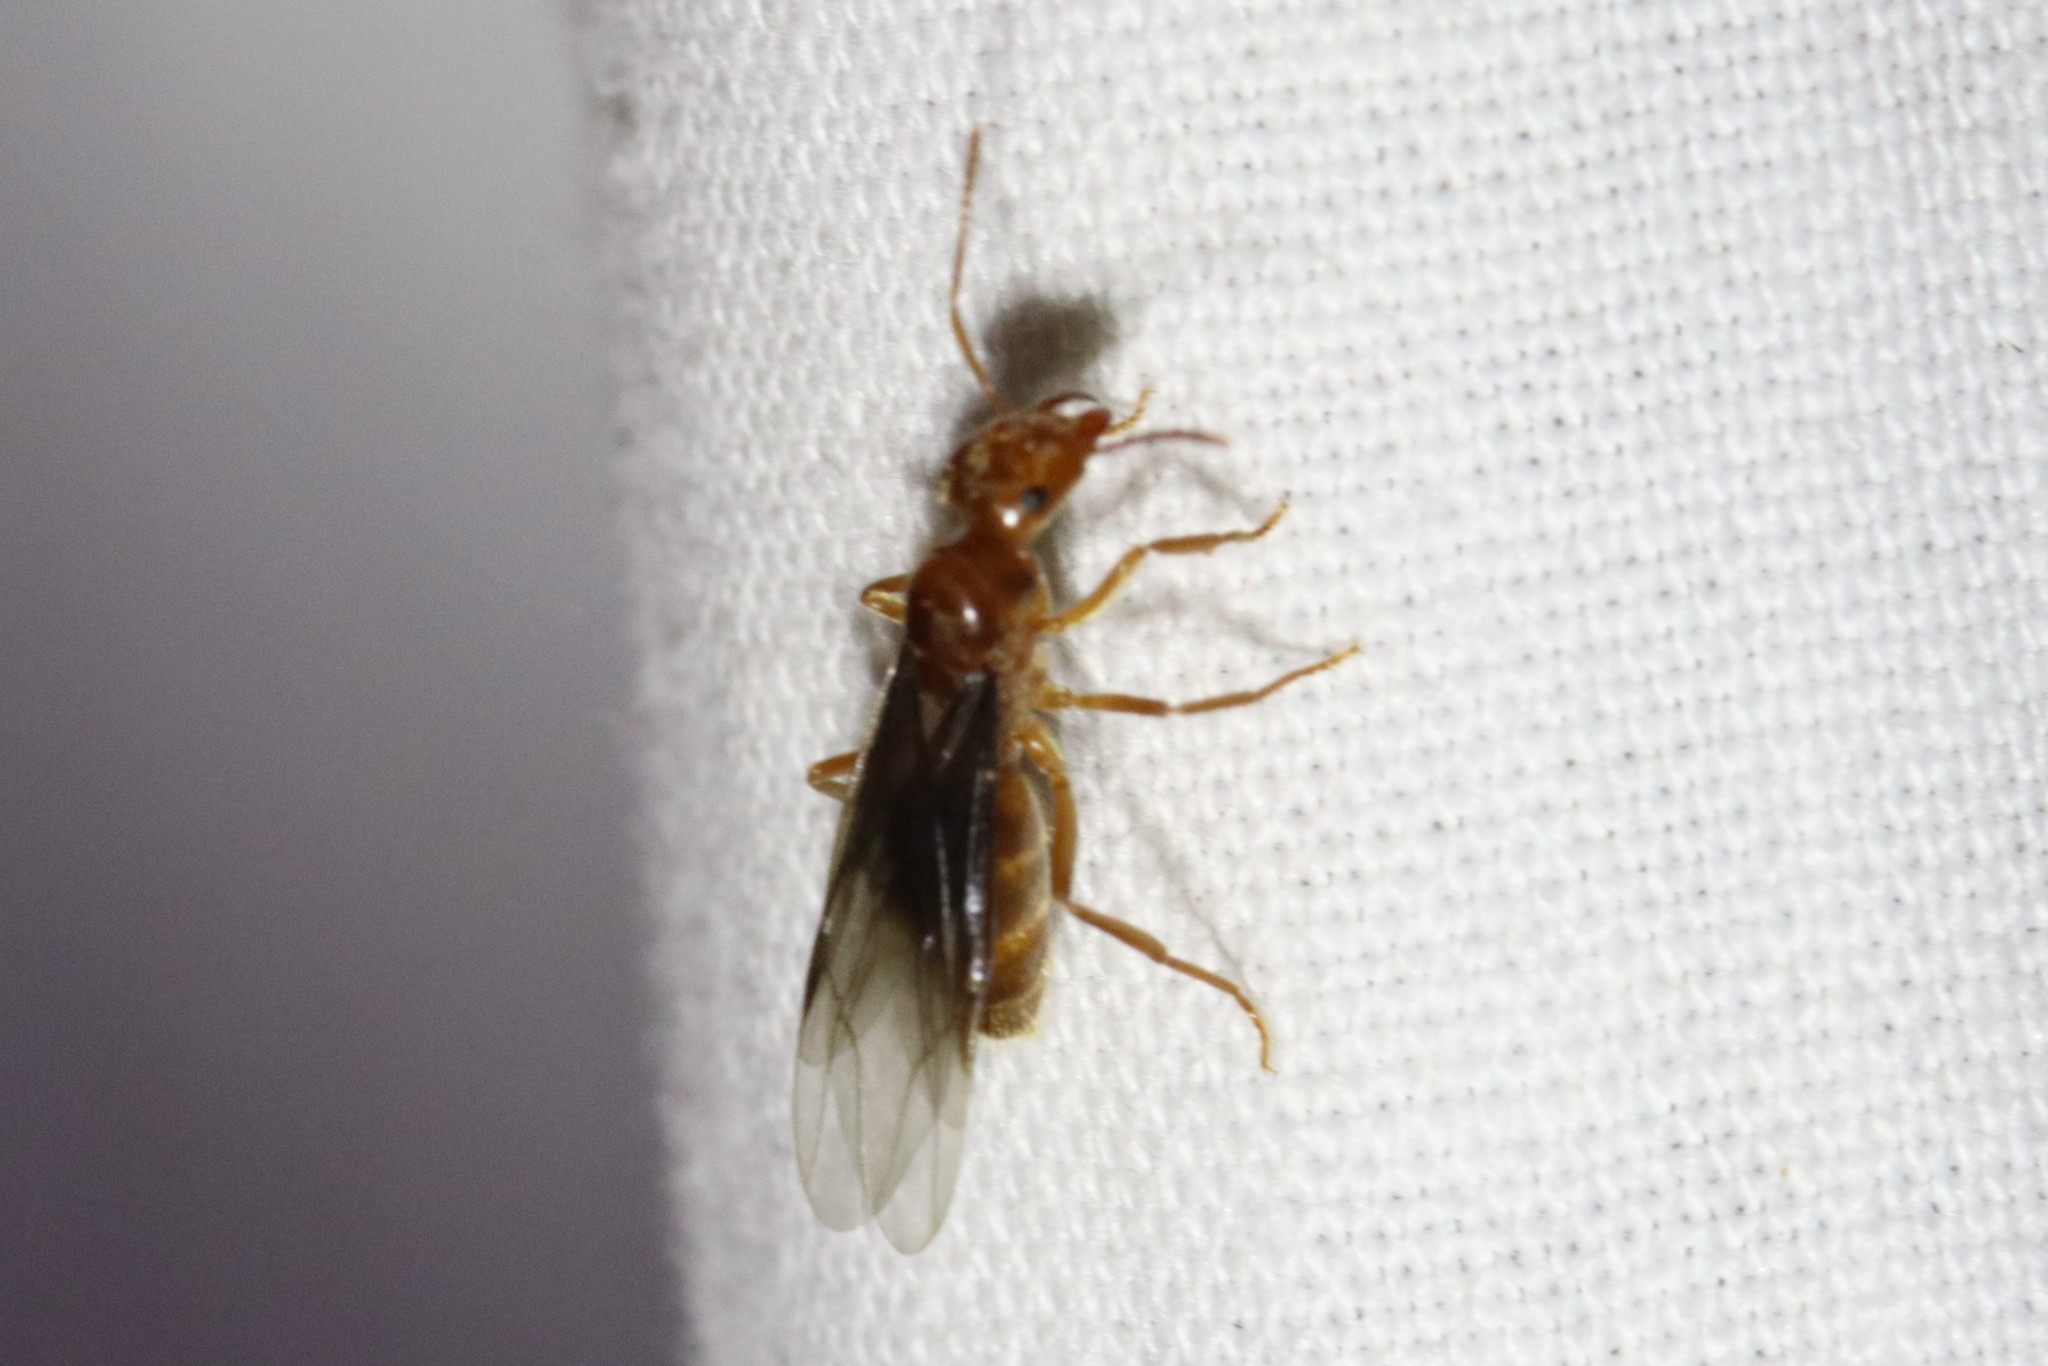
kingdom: Animalia
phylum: Arthropoda
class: Insecta
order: Hymenoptera
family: Formicidae
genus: Lasius
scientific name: Lasius subumbratus
